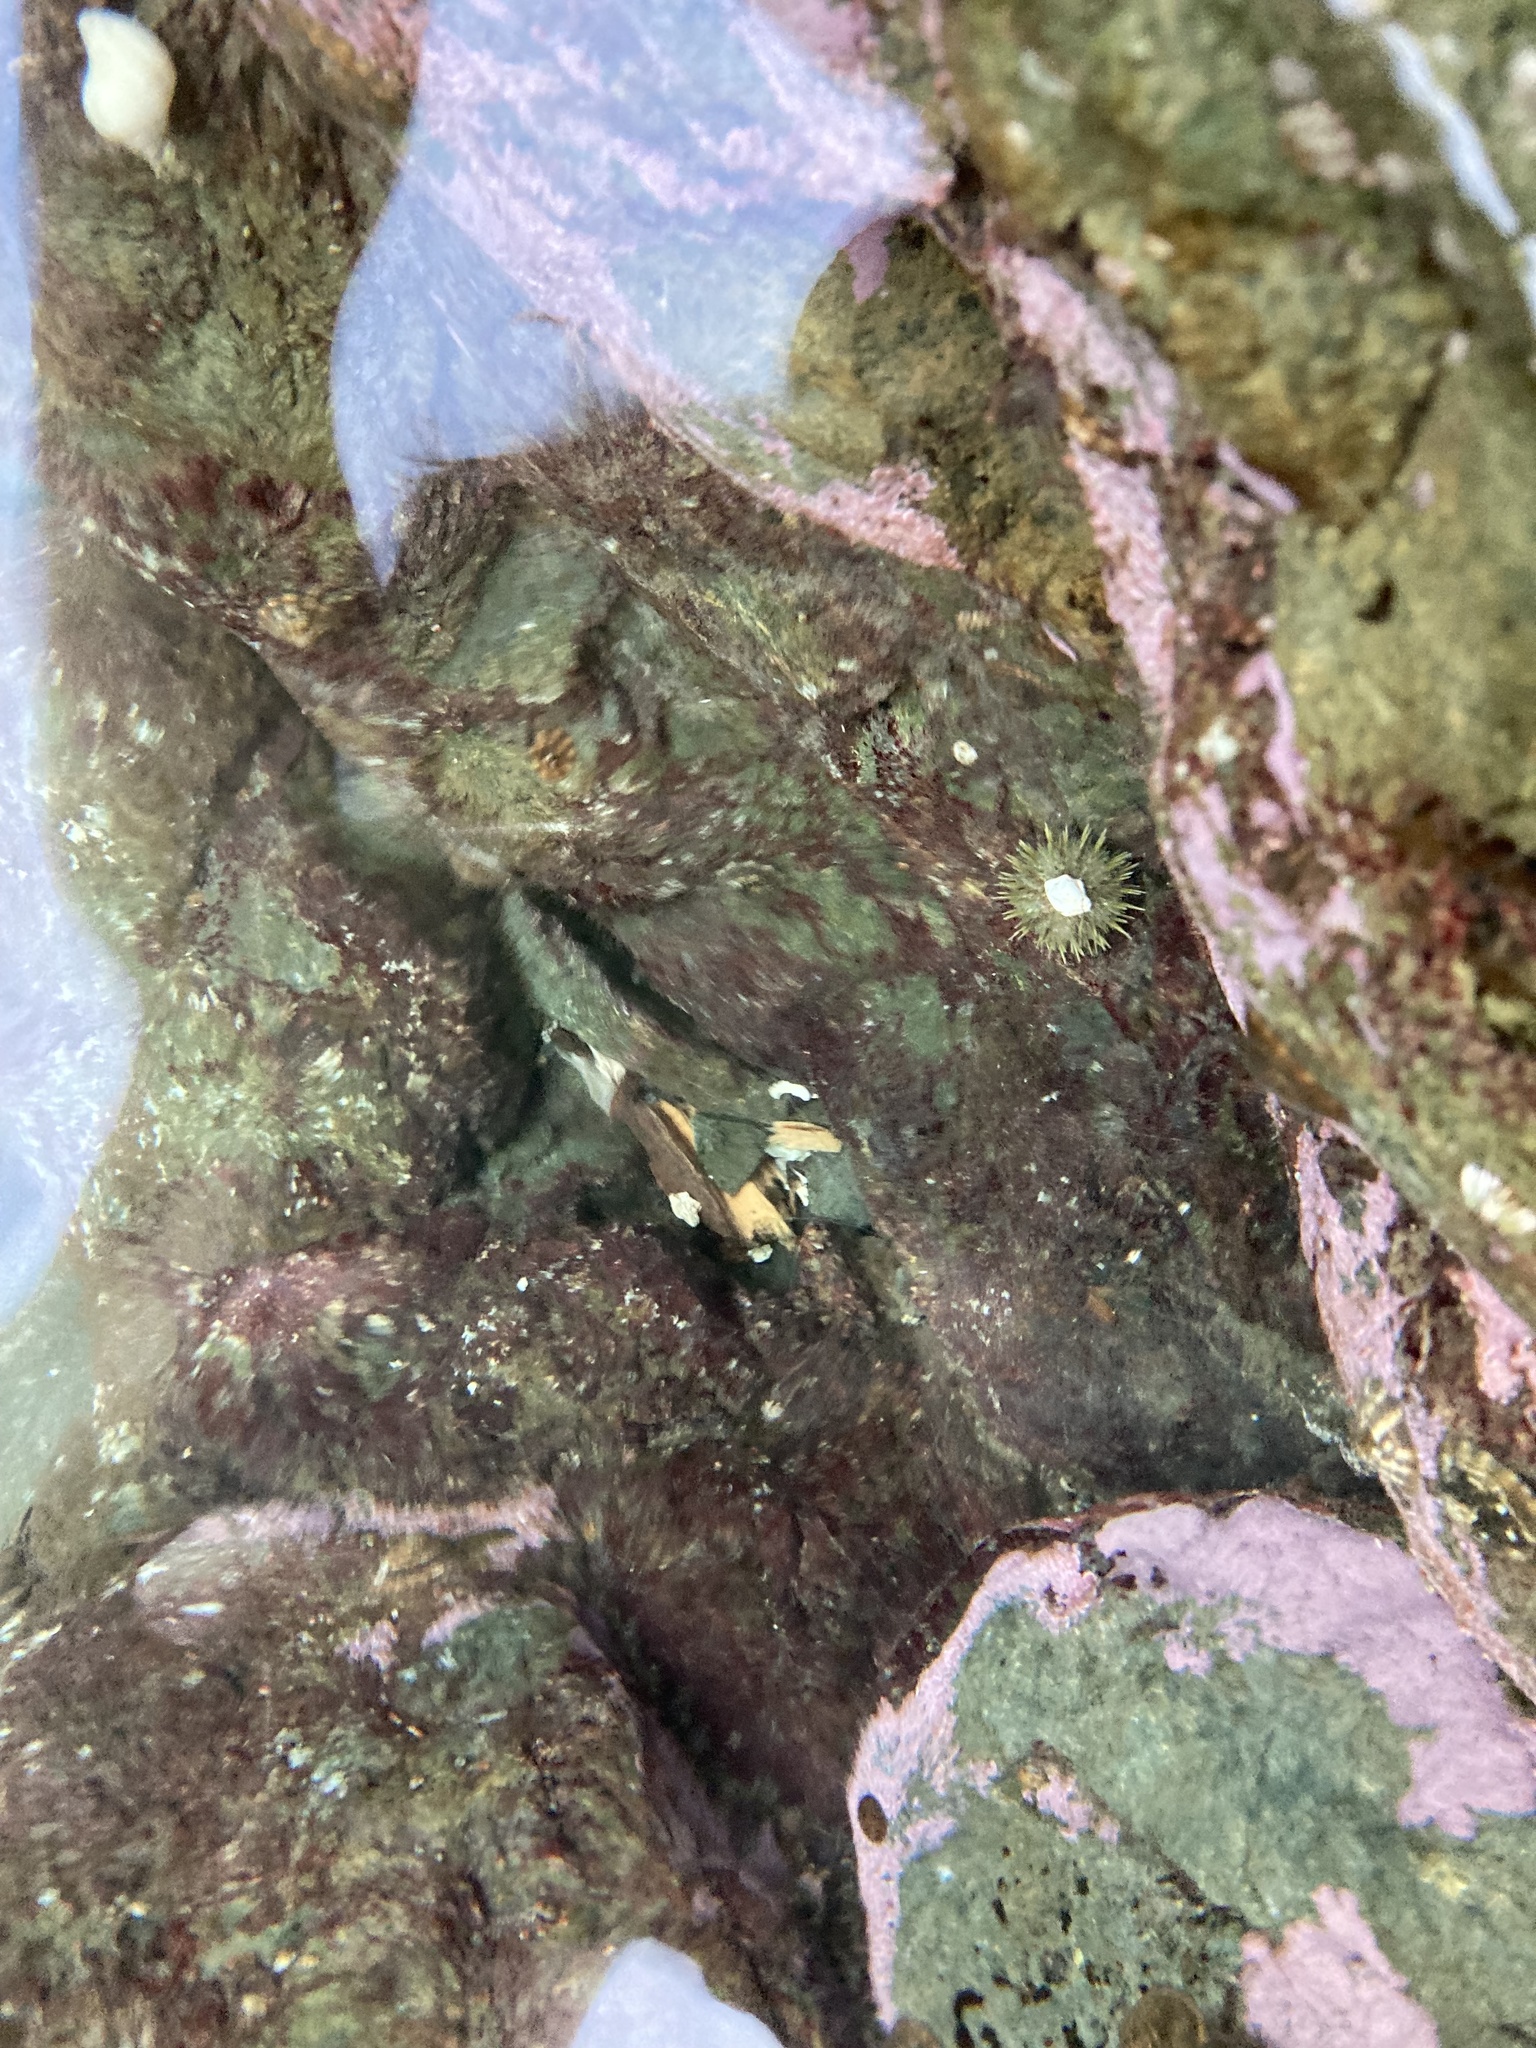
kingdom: Animalia
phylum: Echinodermata
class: Echinoidea
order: Camarodonta
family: Strongylocentrotidae
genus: Strongylocentrotus
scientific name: Strongylocentrotus droebachiensis
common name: Northern sea urchin
